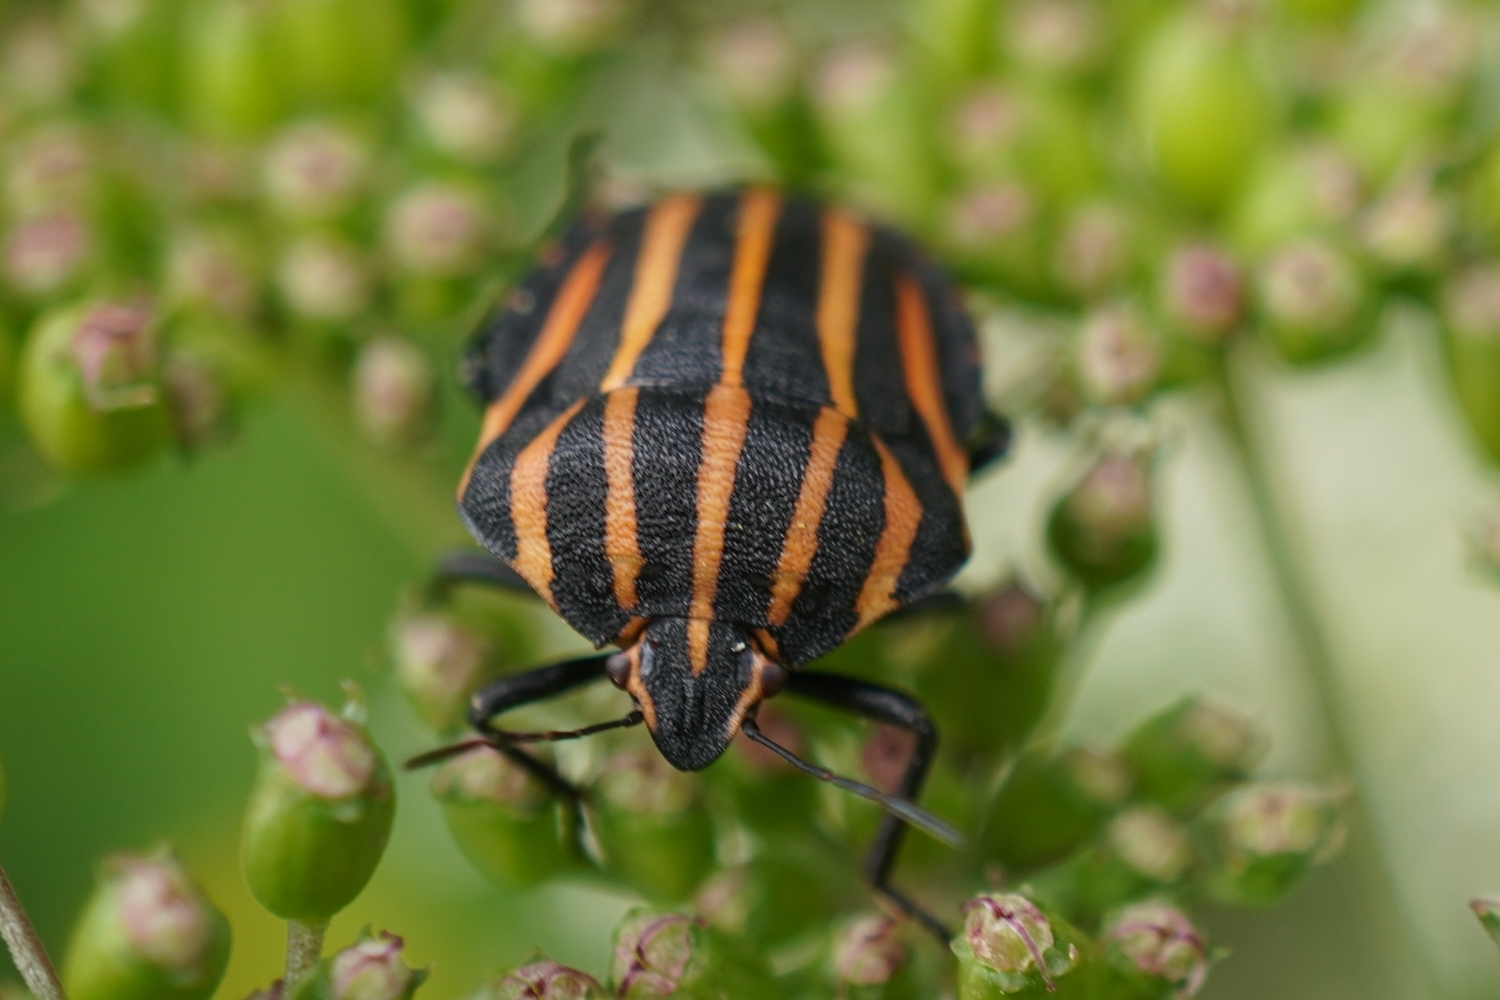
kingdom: Animalia
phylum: Arthropoda
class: Insecta
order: Hemiptera
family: Pentatomidae
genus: Graphosoma
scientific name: Graphosoma rubrolineatum
